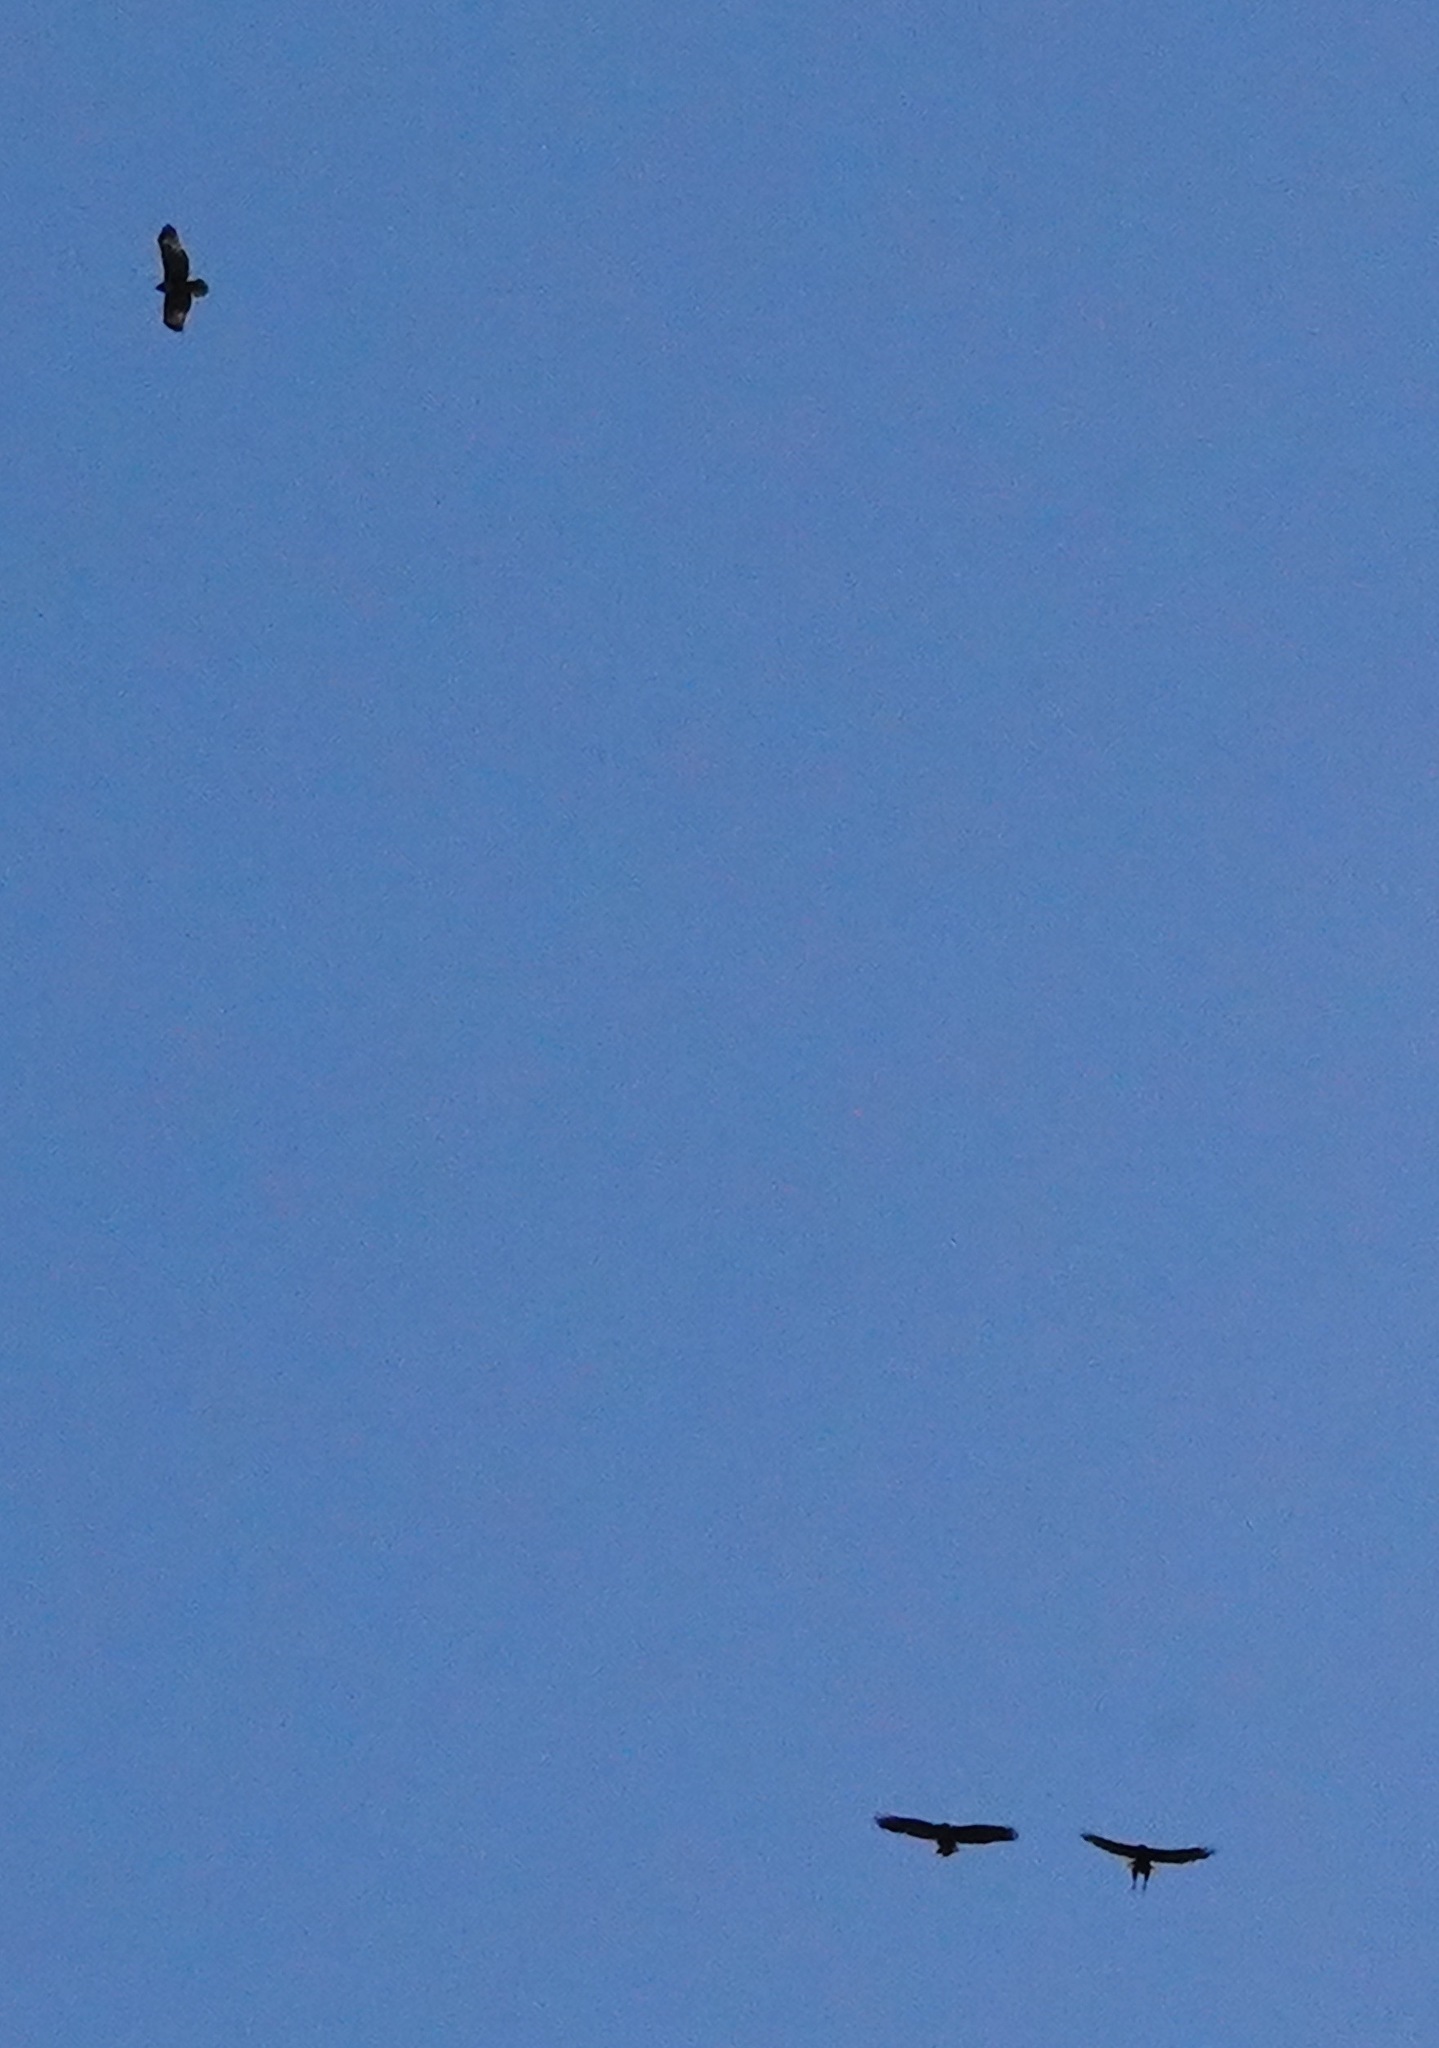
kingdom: Animalia
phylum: Chordata
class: Aves
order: Accipitriformes
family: Accipitridae
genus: Buteo
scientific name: Buteo jamaicensis
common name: Red-tailed hawk
